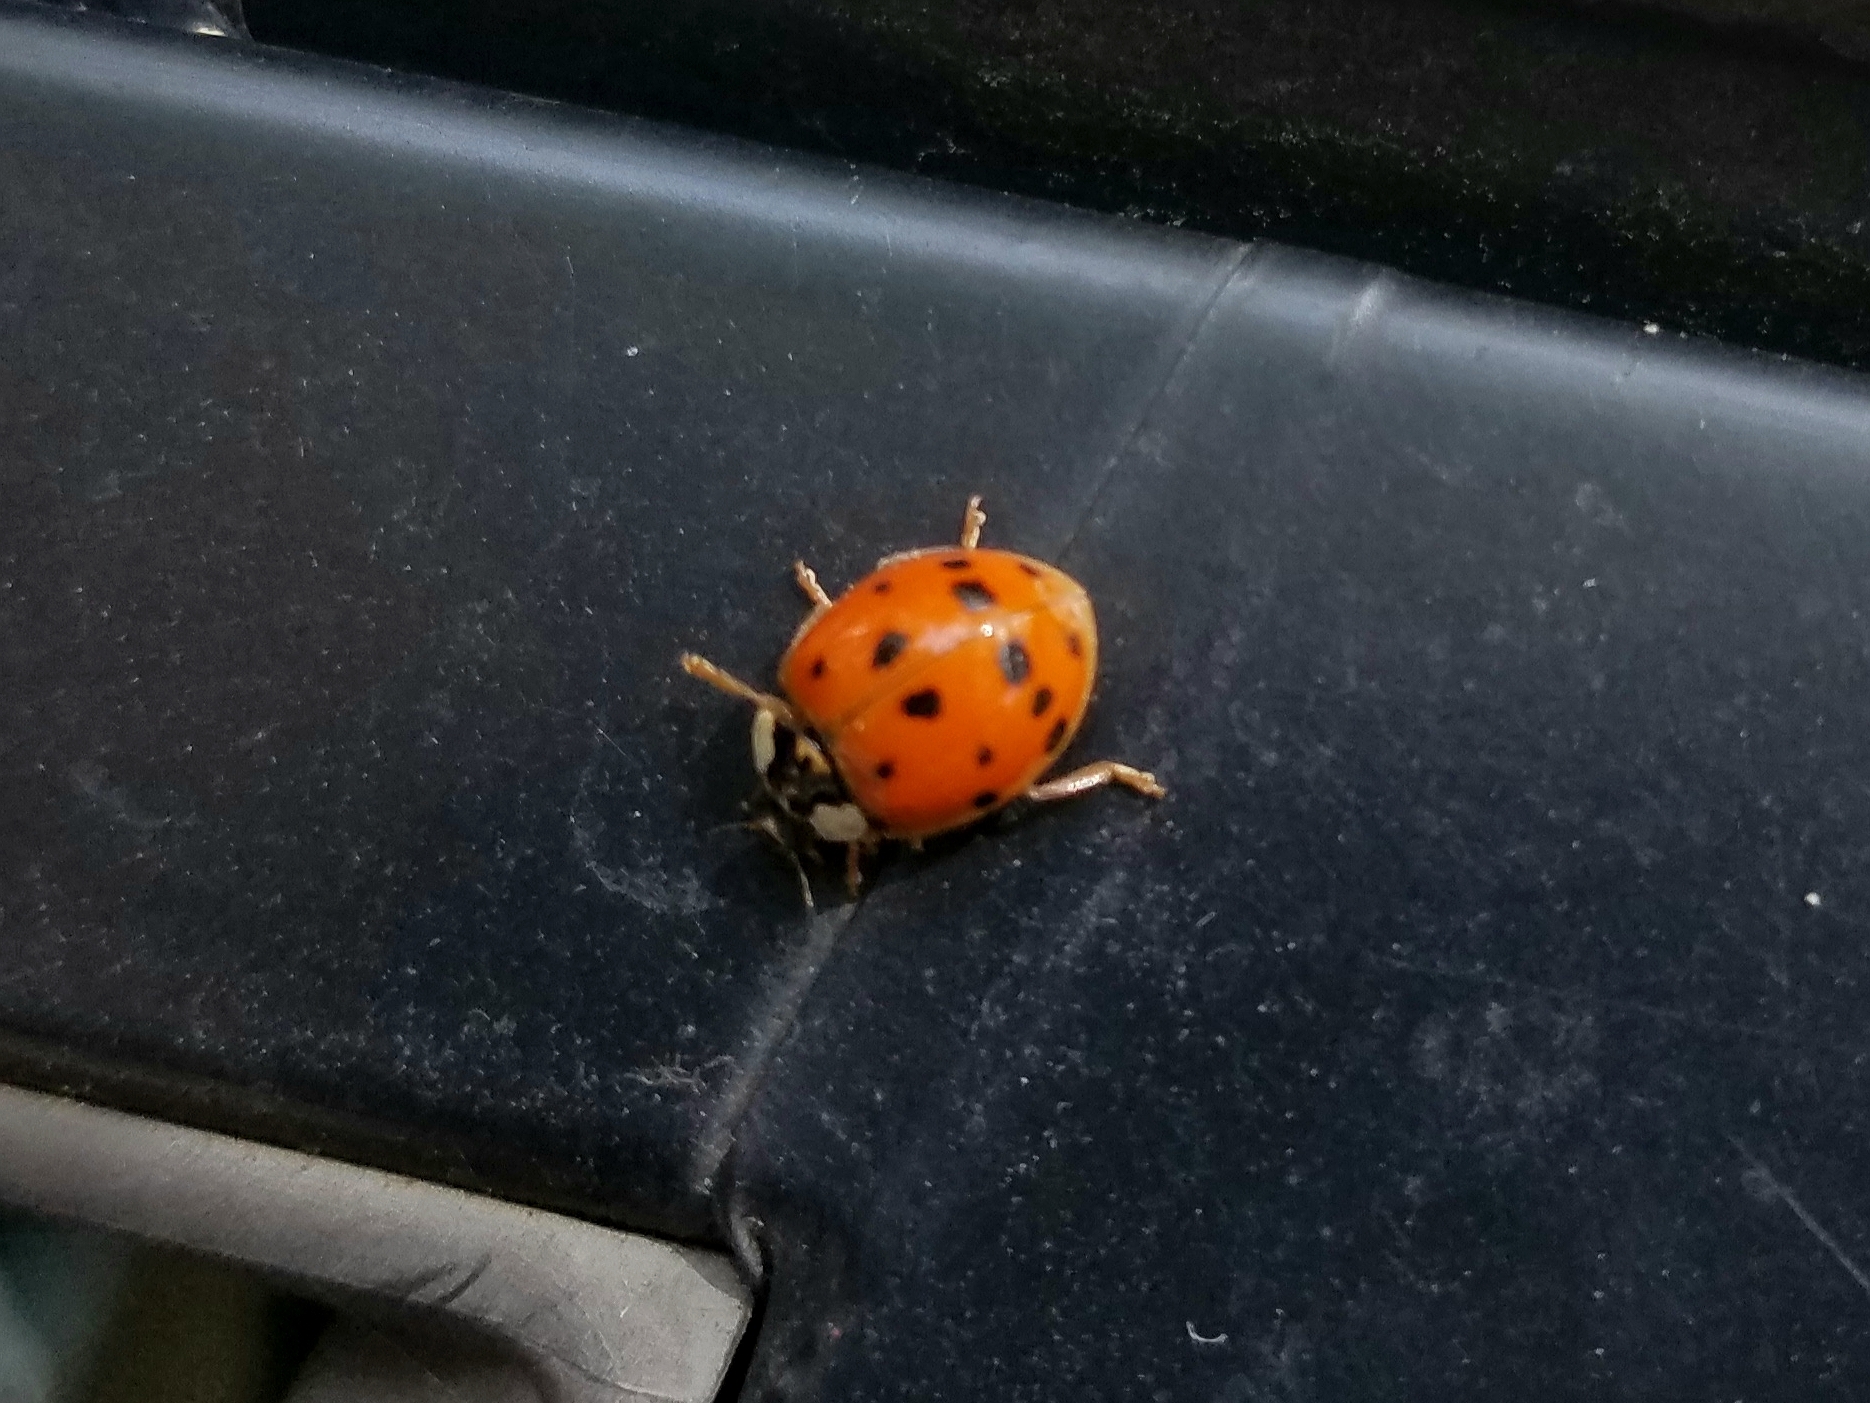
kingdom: Animalia
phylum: Arthropoda
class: Insecta
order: Coleoptera
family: Coccinellidae
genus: Harmonia
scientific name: Harmonia axyridis
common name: Harlequin ladybird
